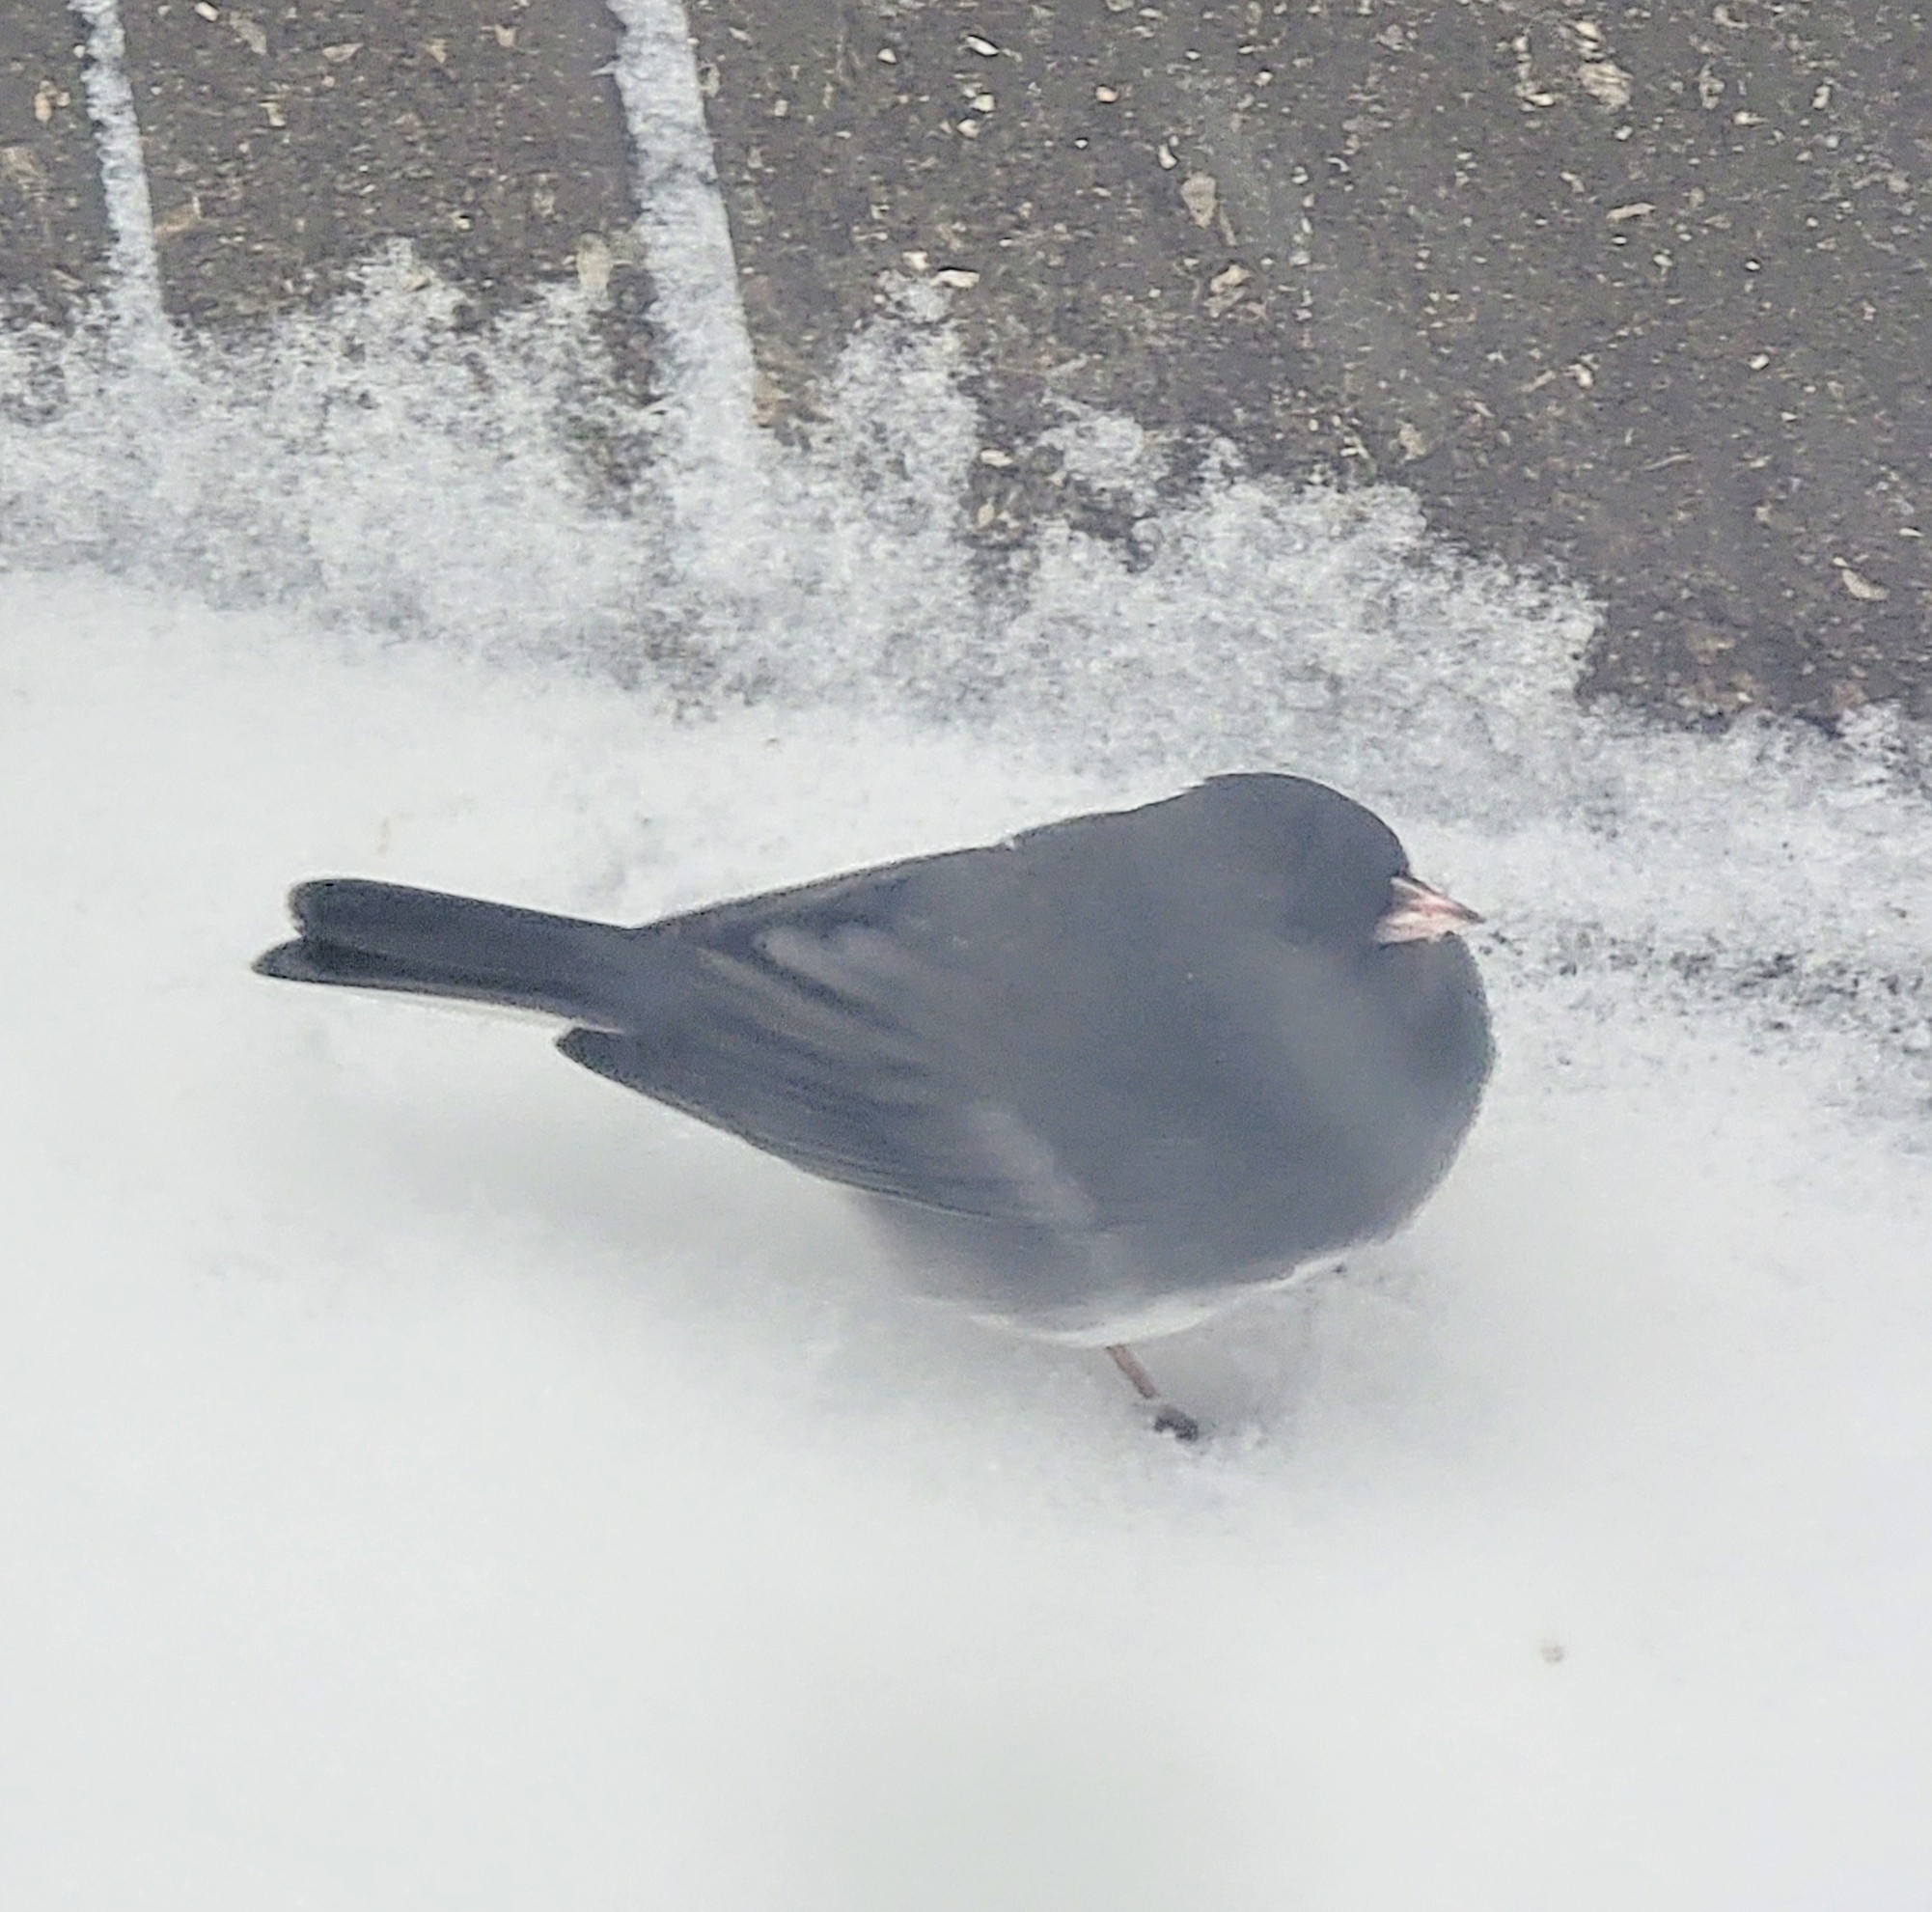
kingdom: Animalia
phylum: Chordata
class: Aves
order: Passeriformes
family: Passerellidae
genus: Junco
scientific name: Junco hyemalis
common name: Dark-eyed junco
